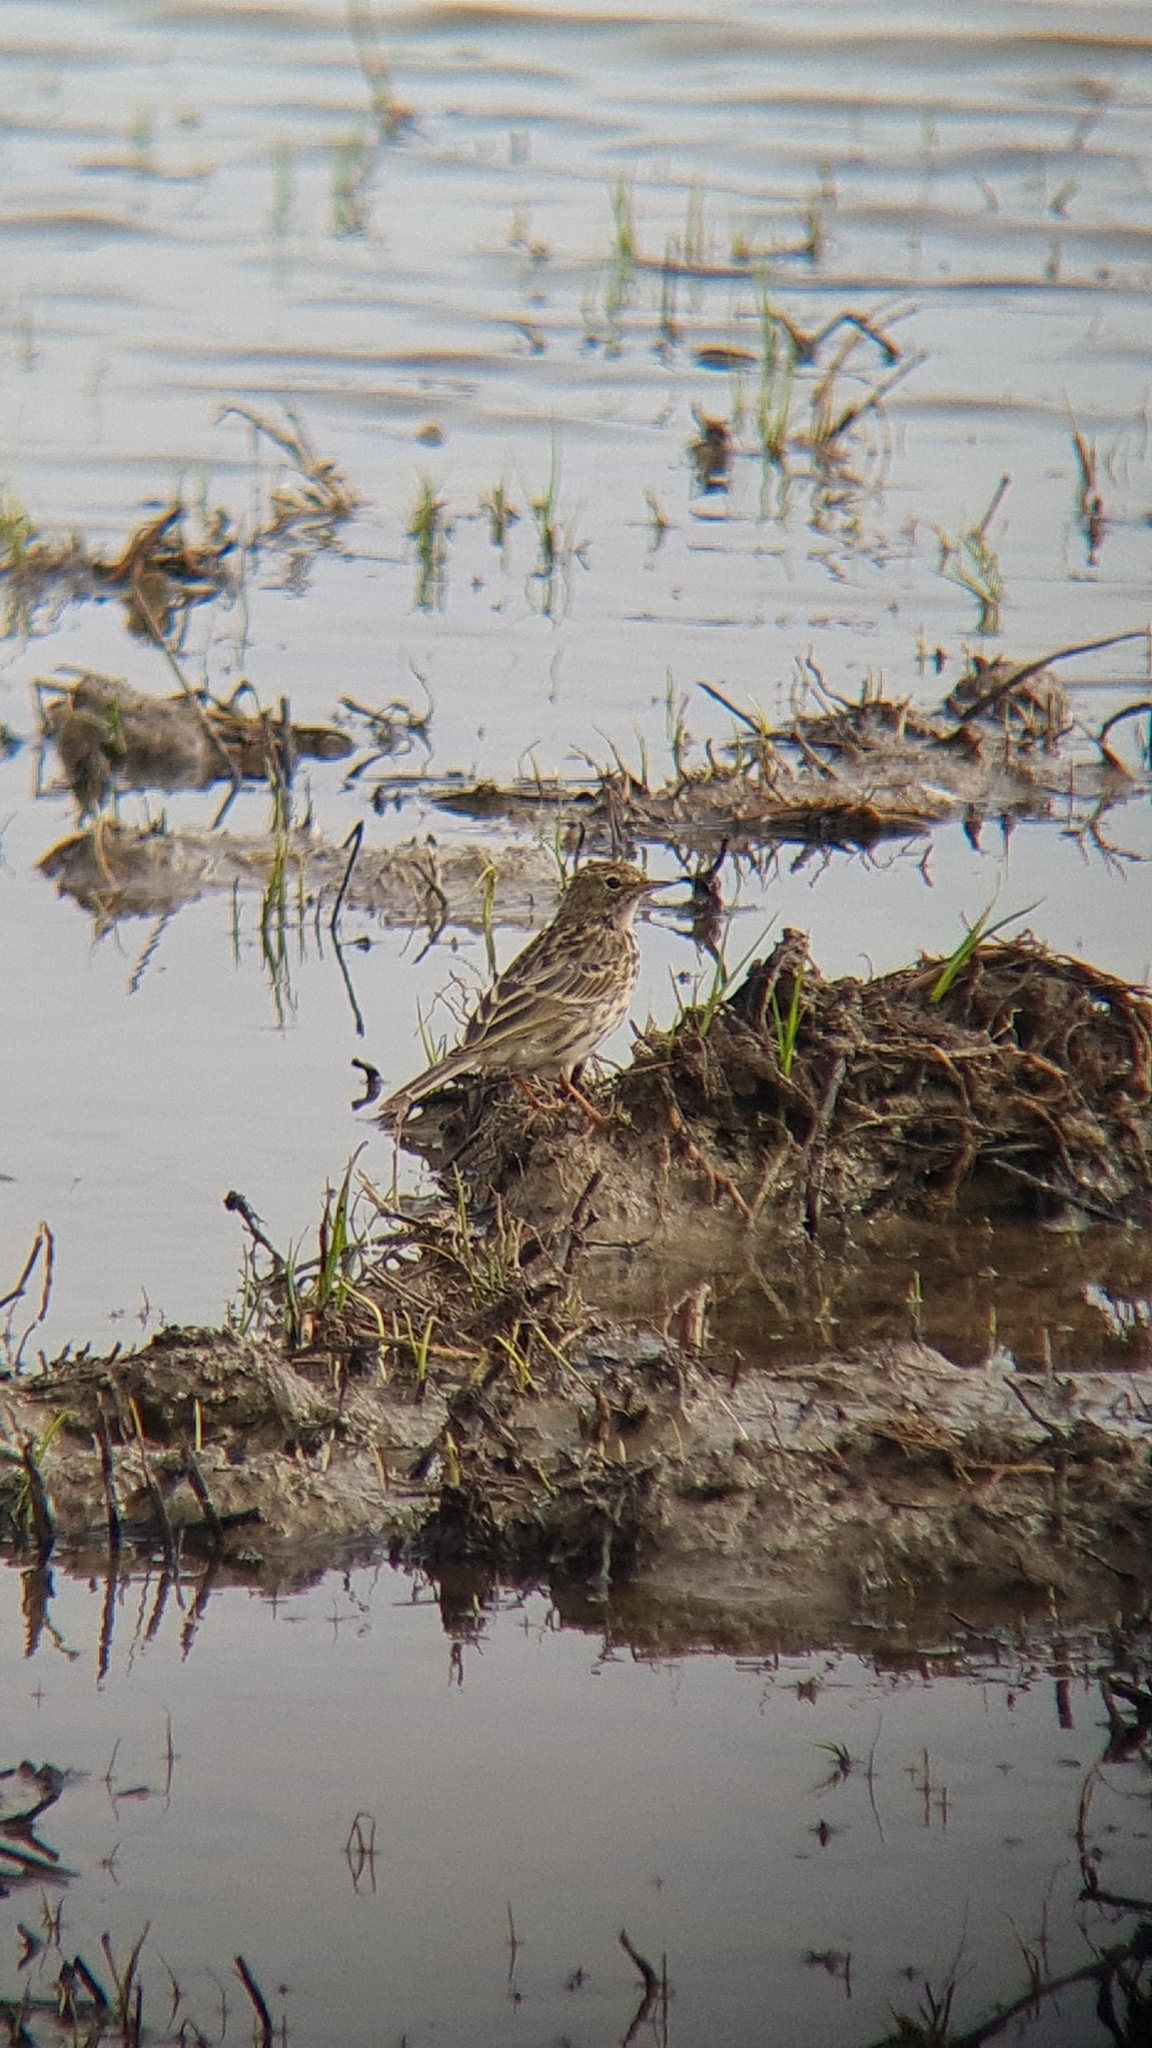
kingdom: Animalia
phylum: Chordata
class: Aves
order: Passeriformes
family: Motacillidae
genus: Anthus
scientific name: Anthus pratensis
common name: Meadow pipit
